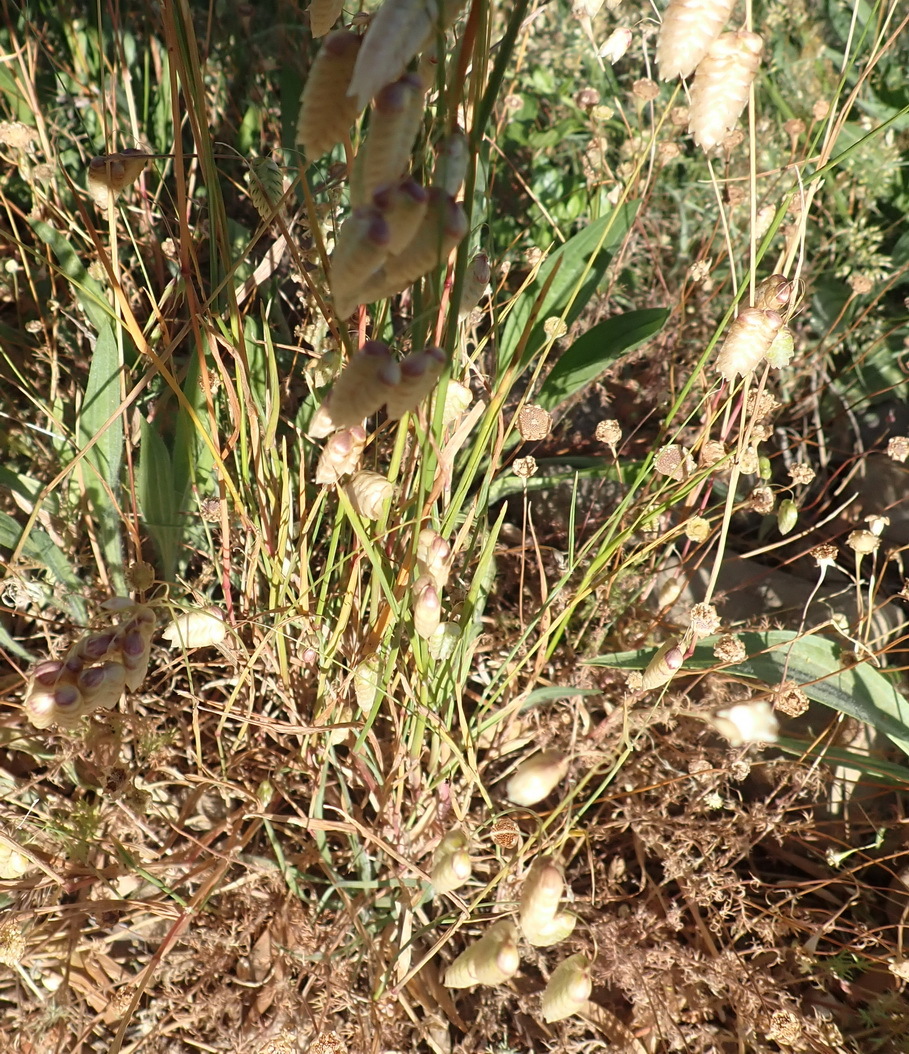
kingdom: Plantae
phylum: Tracheophyta
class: Liliopsida
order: Poales
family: Poaceae
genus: Briza
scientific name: Briza maxima
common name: Big quakinggrass
